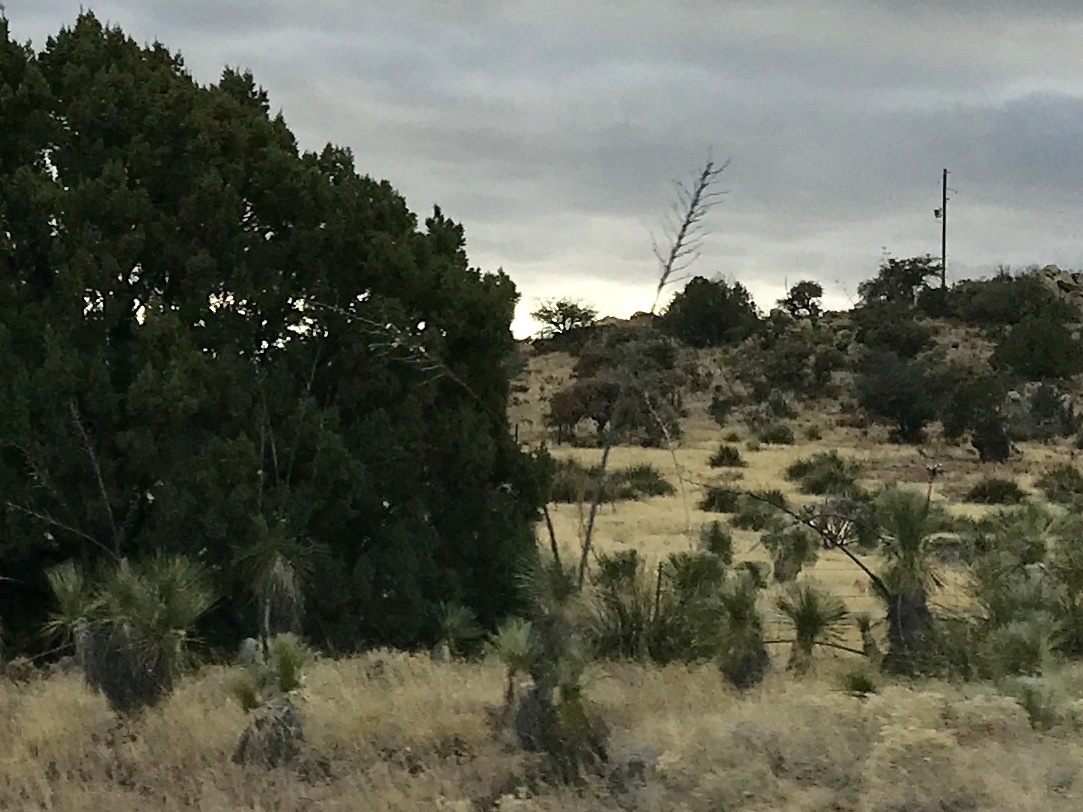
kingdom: Plantae
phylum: Tracheophyta
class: Liliopsida
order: Asparagales
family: Asparagaceae
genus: Yucca
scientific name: Yucca elata
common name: Palmella
